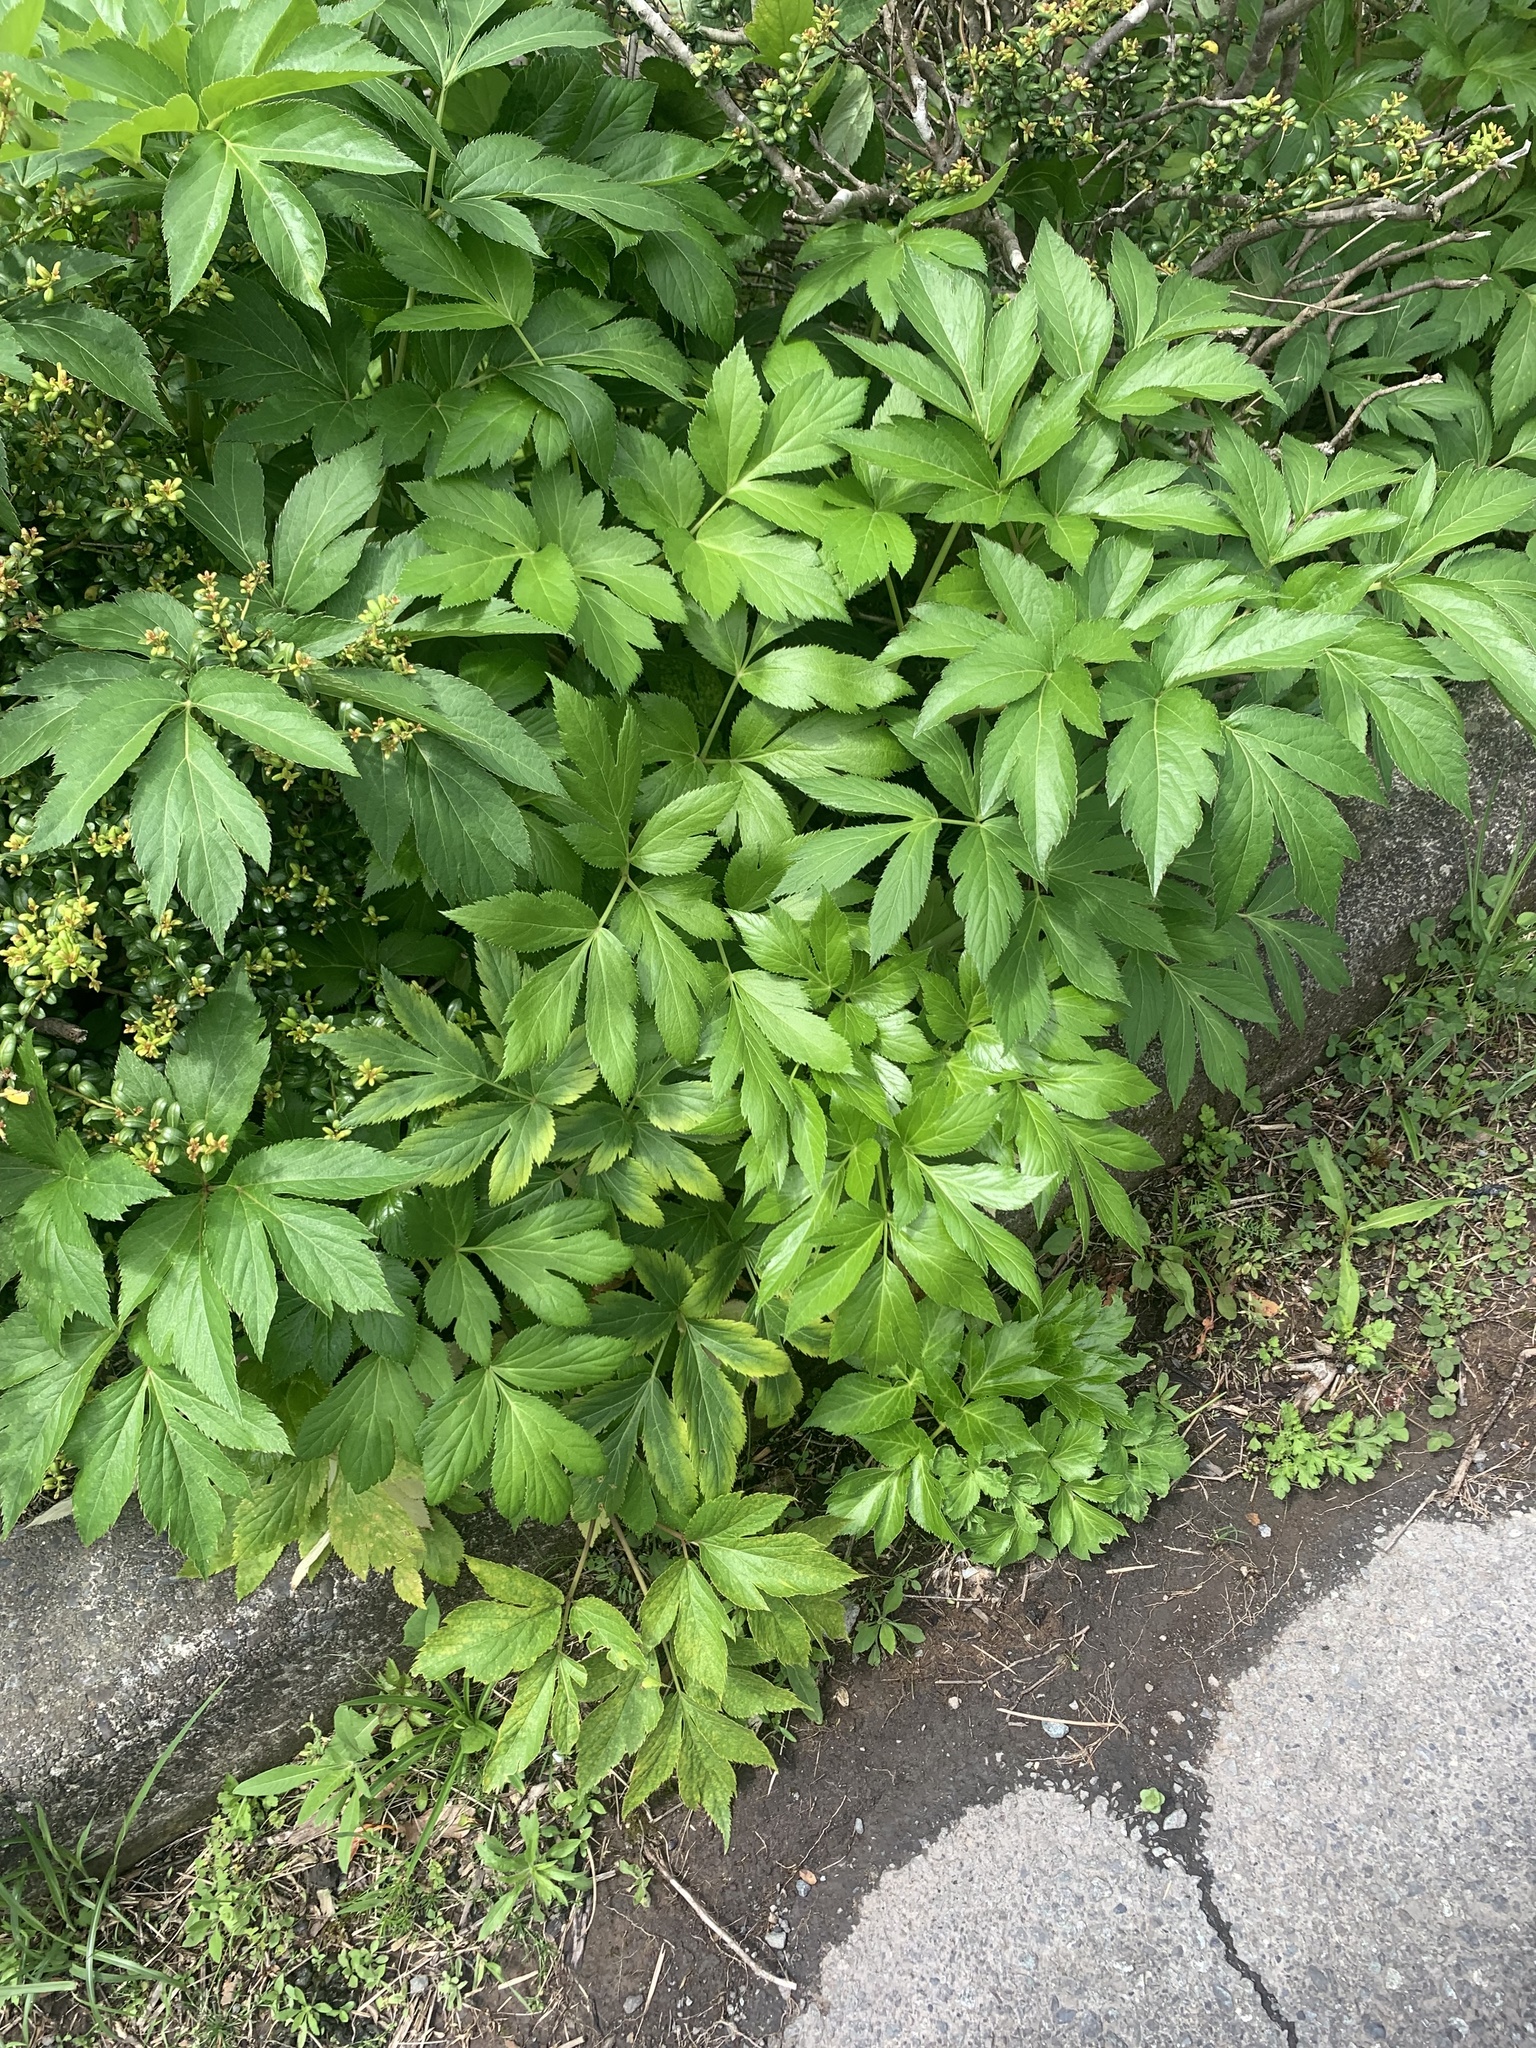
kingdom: Plantae
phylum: Tracheophyta
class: Magnoliopsida
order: Apiales
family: Apiaceae
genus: Angelica
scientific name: Angelica keiskei
